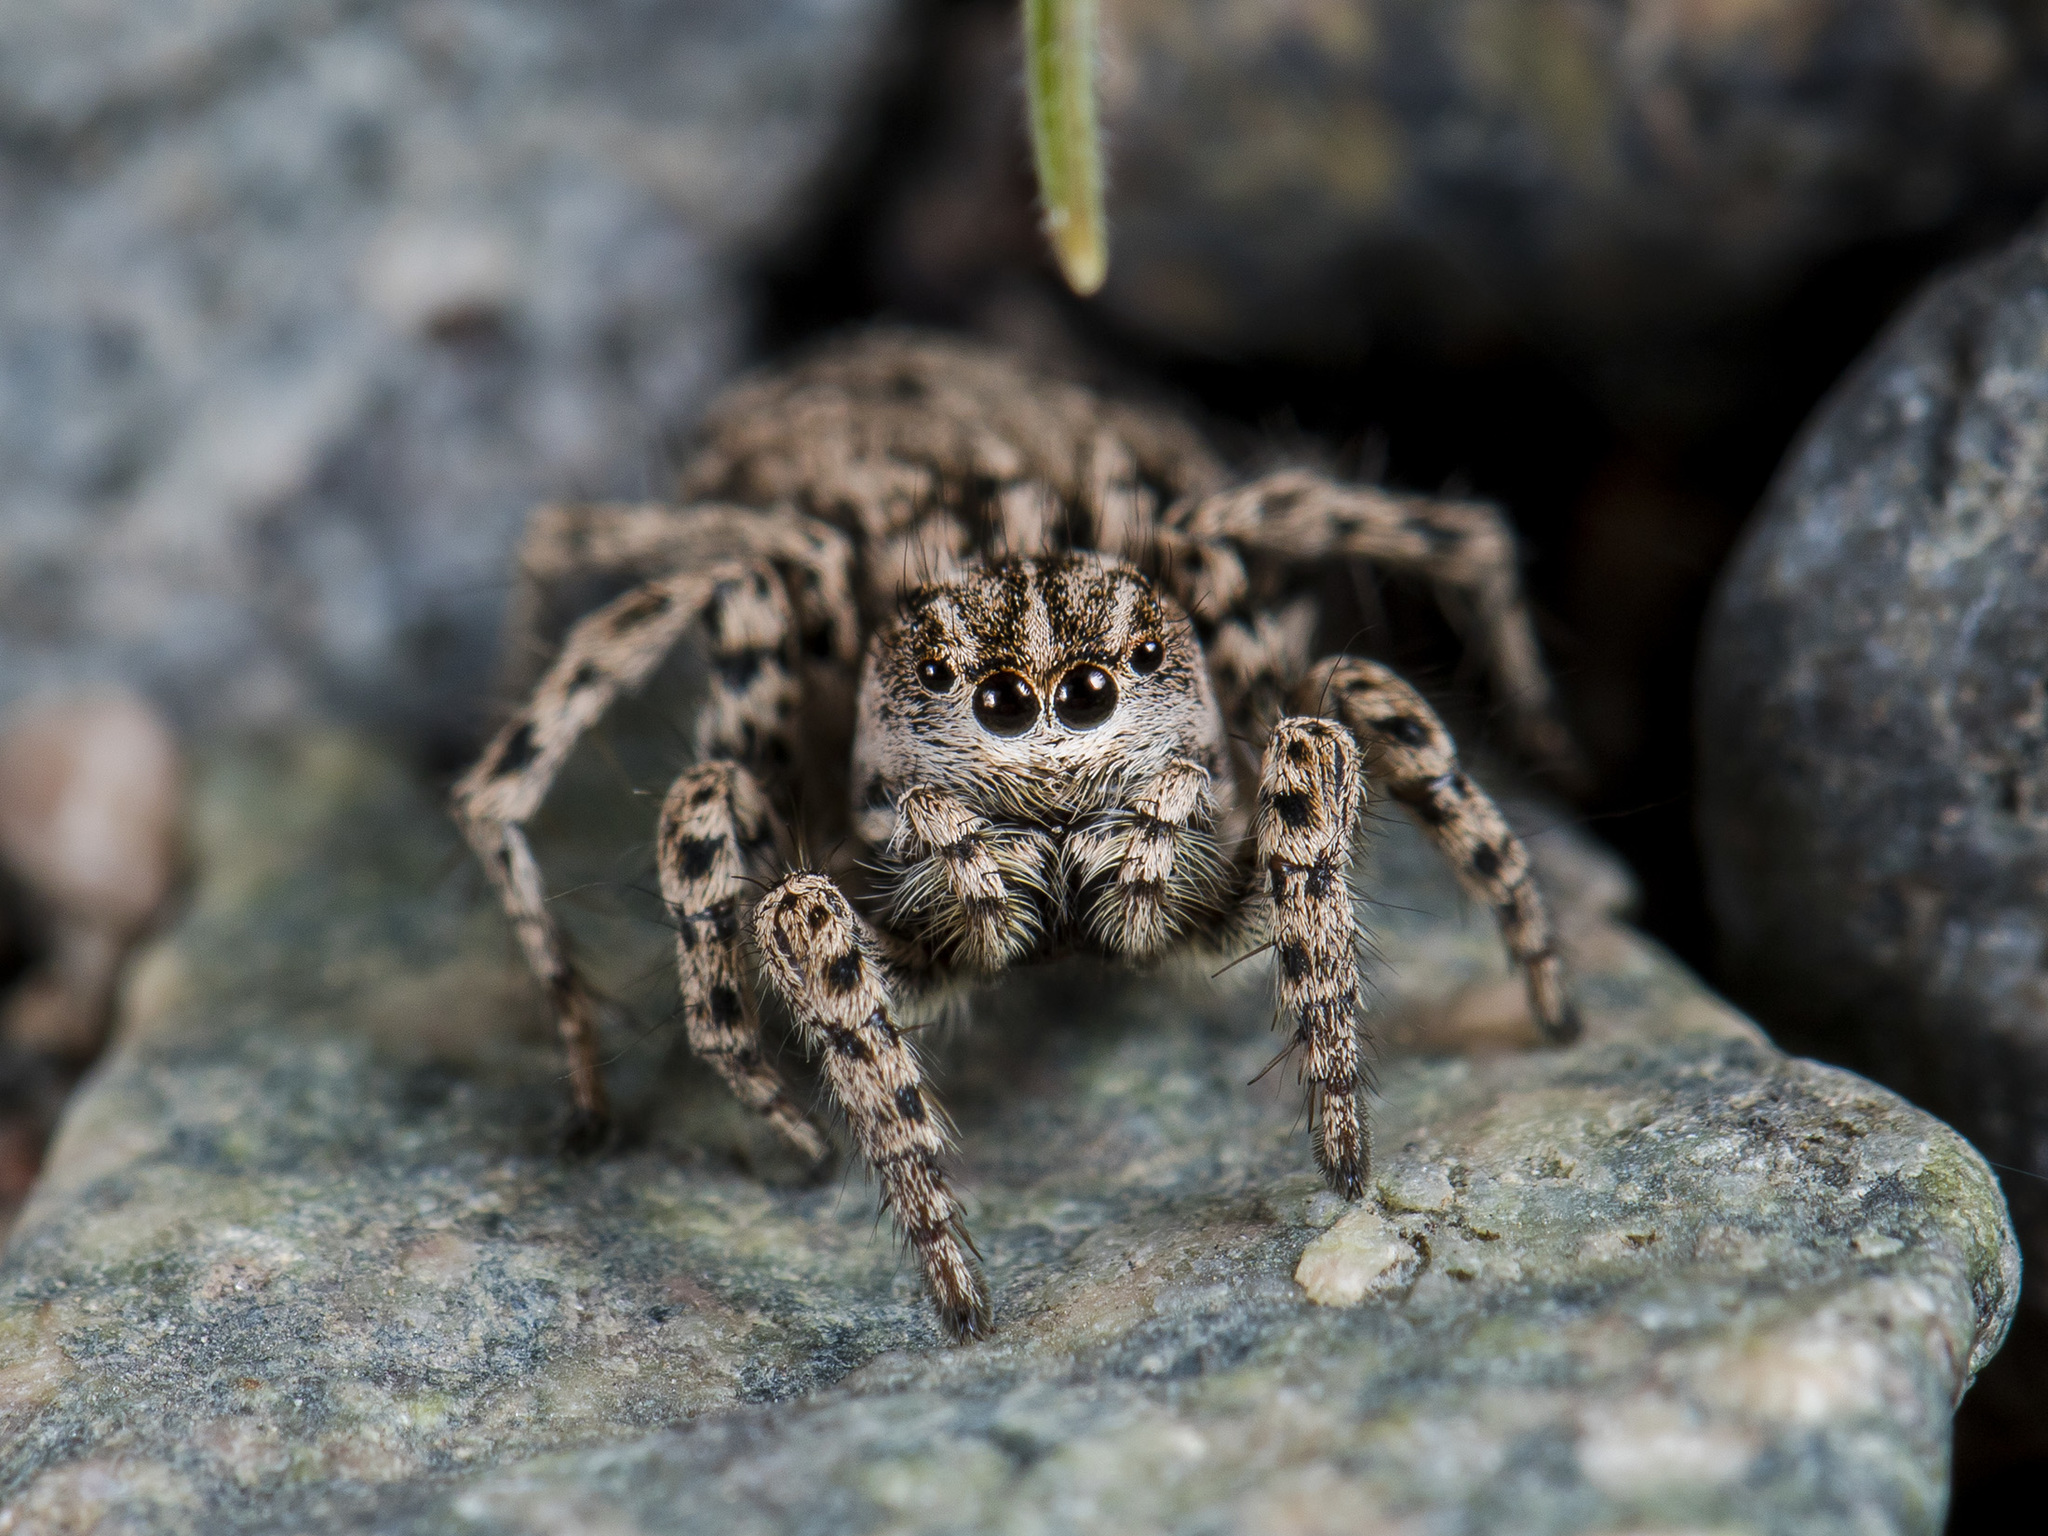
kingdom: Animalia
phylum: Arthropoda
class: Arachnida
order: Araneae
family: Salticidae
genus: Aelurillus
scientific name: Aelurillus m-nigrum
